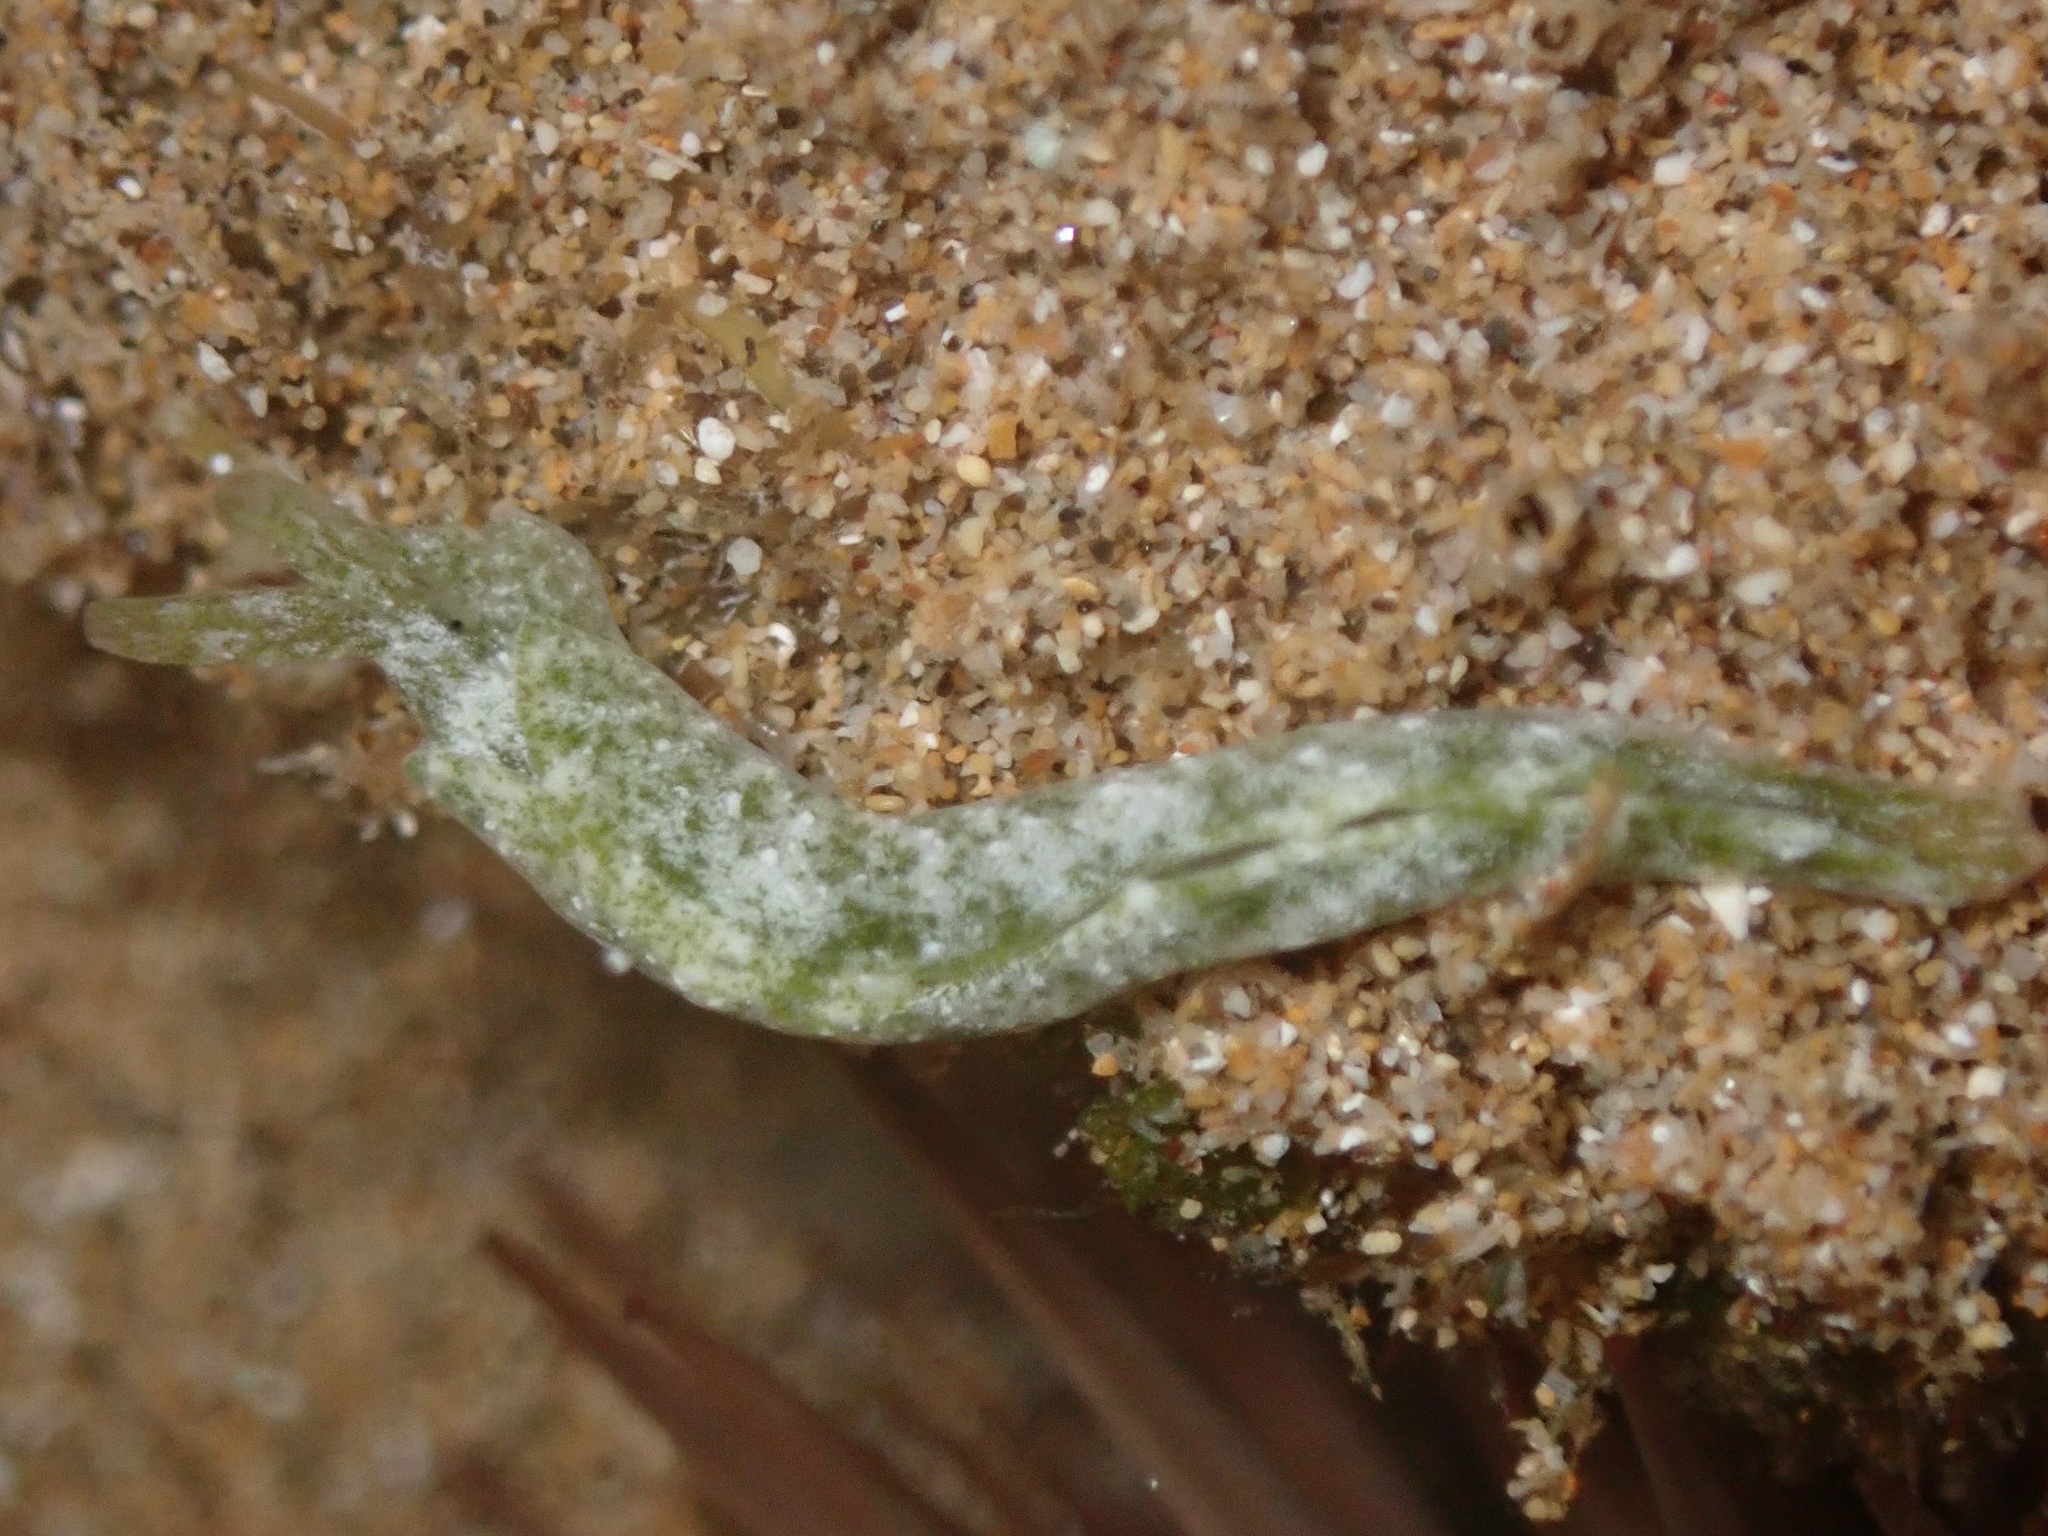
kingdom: Animalia
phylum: Mollusca
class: Gastropoda
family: Plakobranchidae
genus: Elysia
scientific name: Elysia nealae
